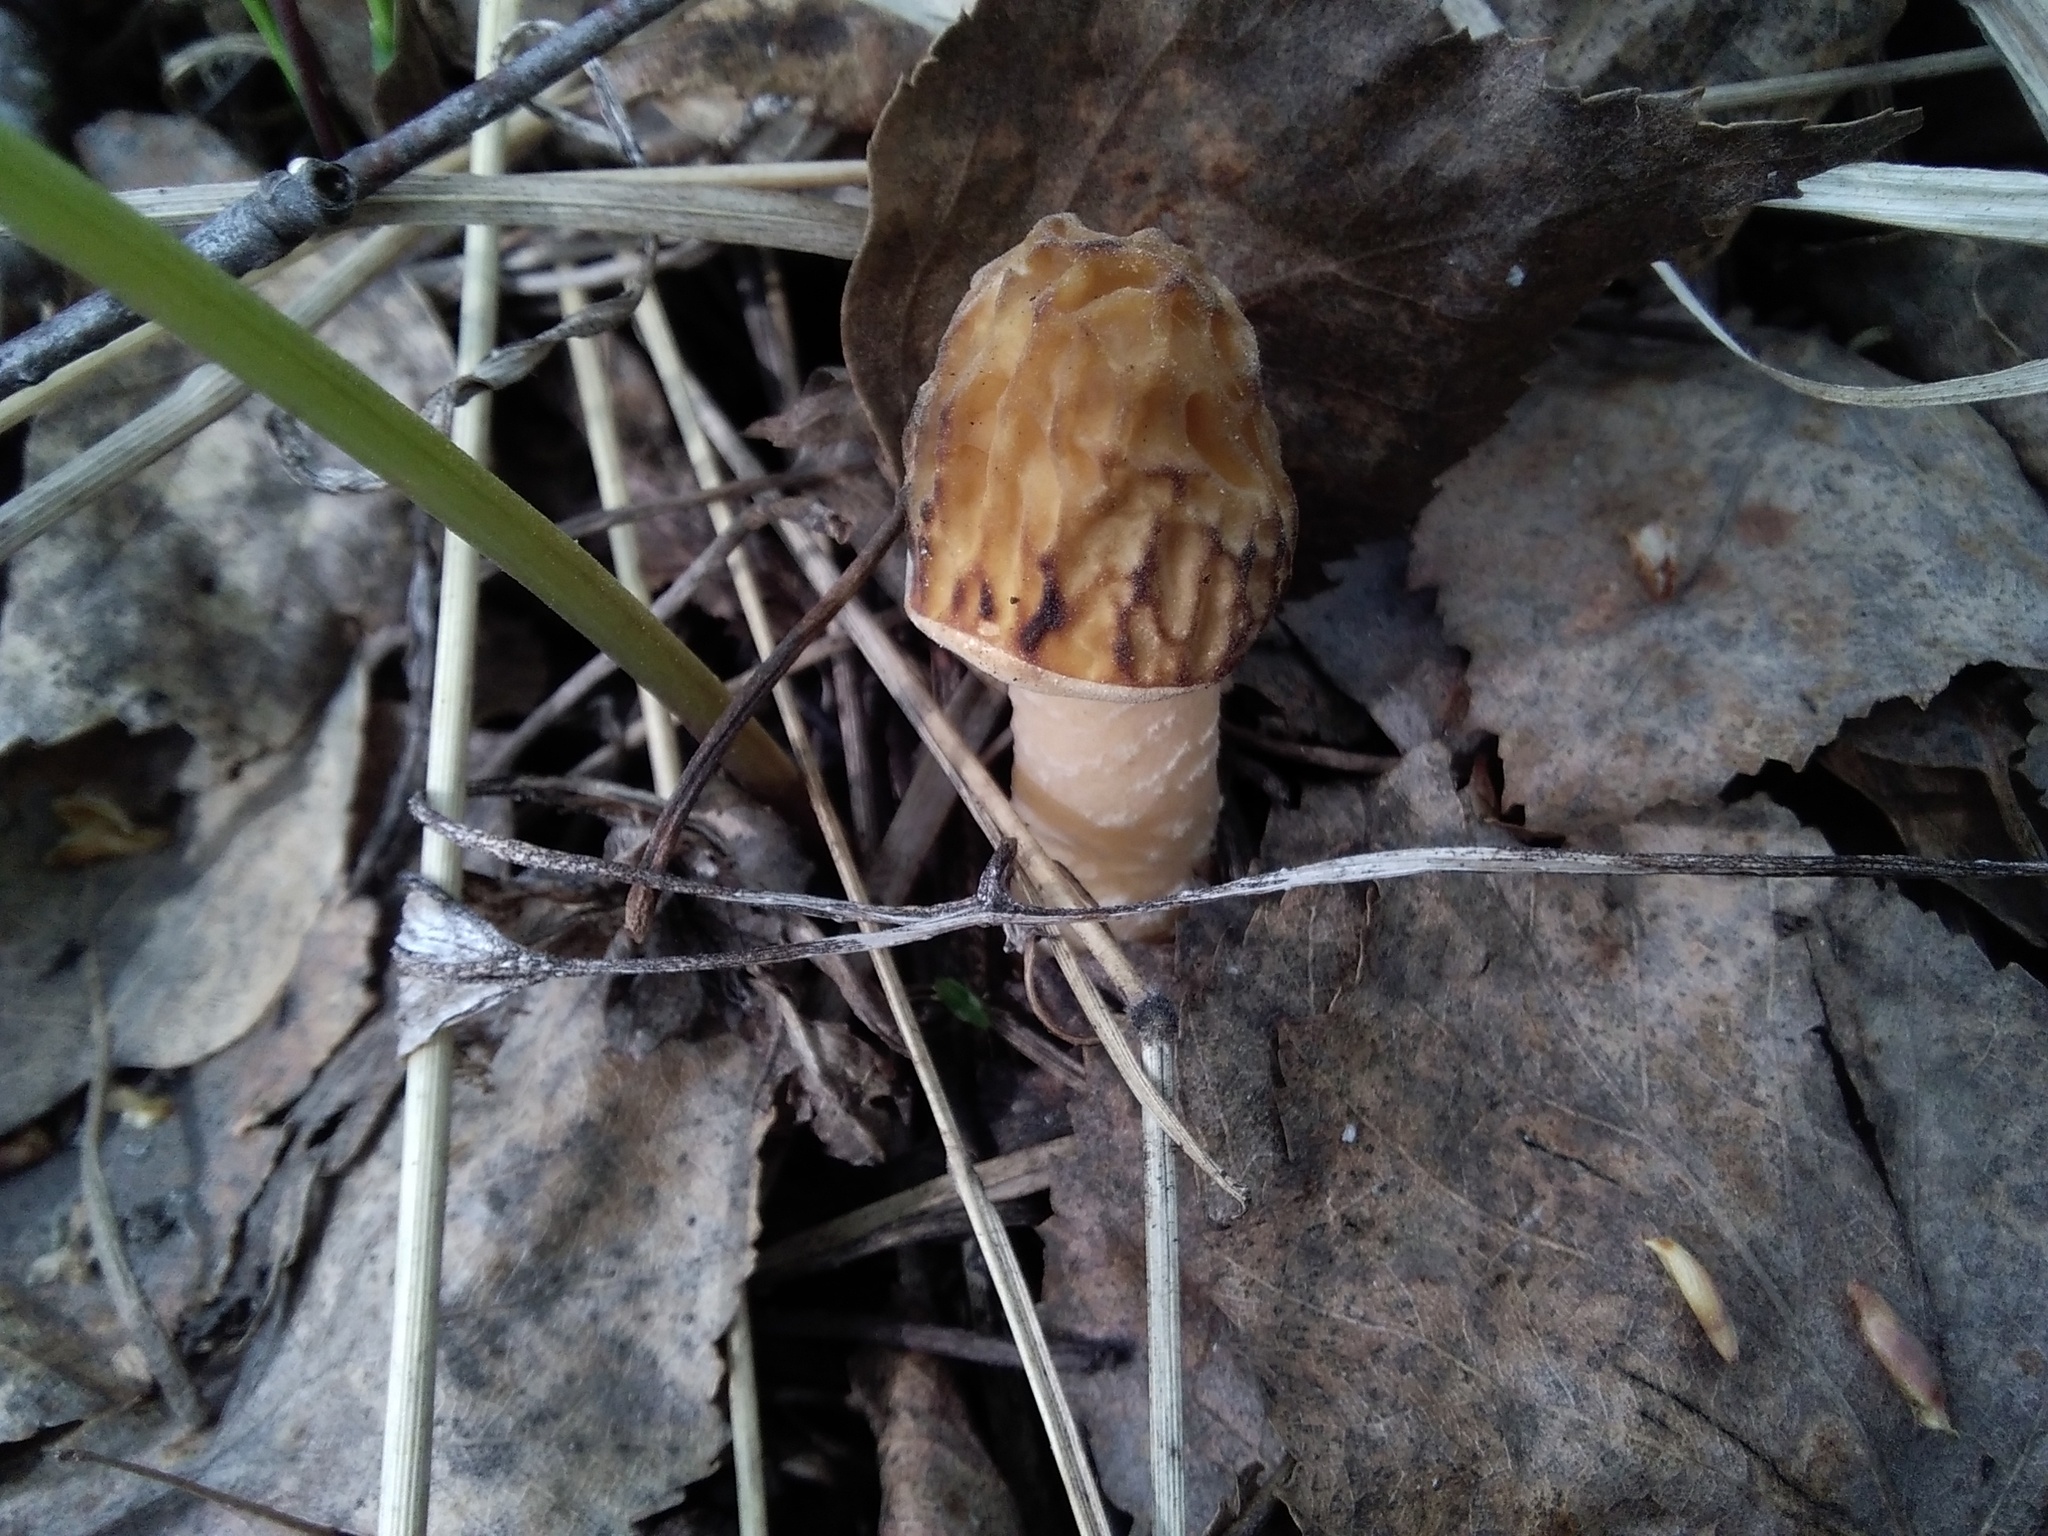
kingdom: Fungi
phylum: Ascomycota
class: Pezizomycetes
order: Pezizales
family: Morchellaceae
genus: Verpa
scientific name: Verpa bohemica
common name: Wrinkled thimble morel
